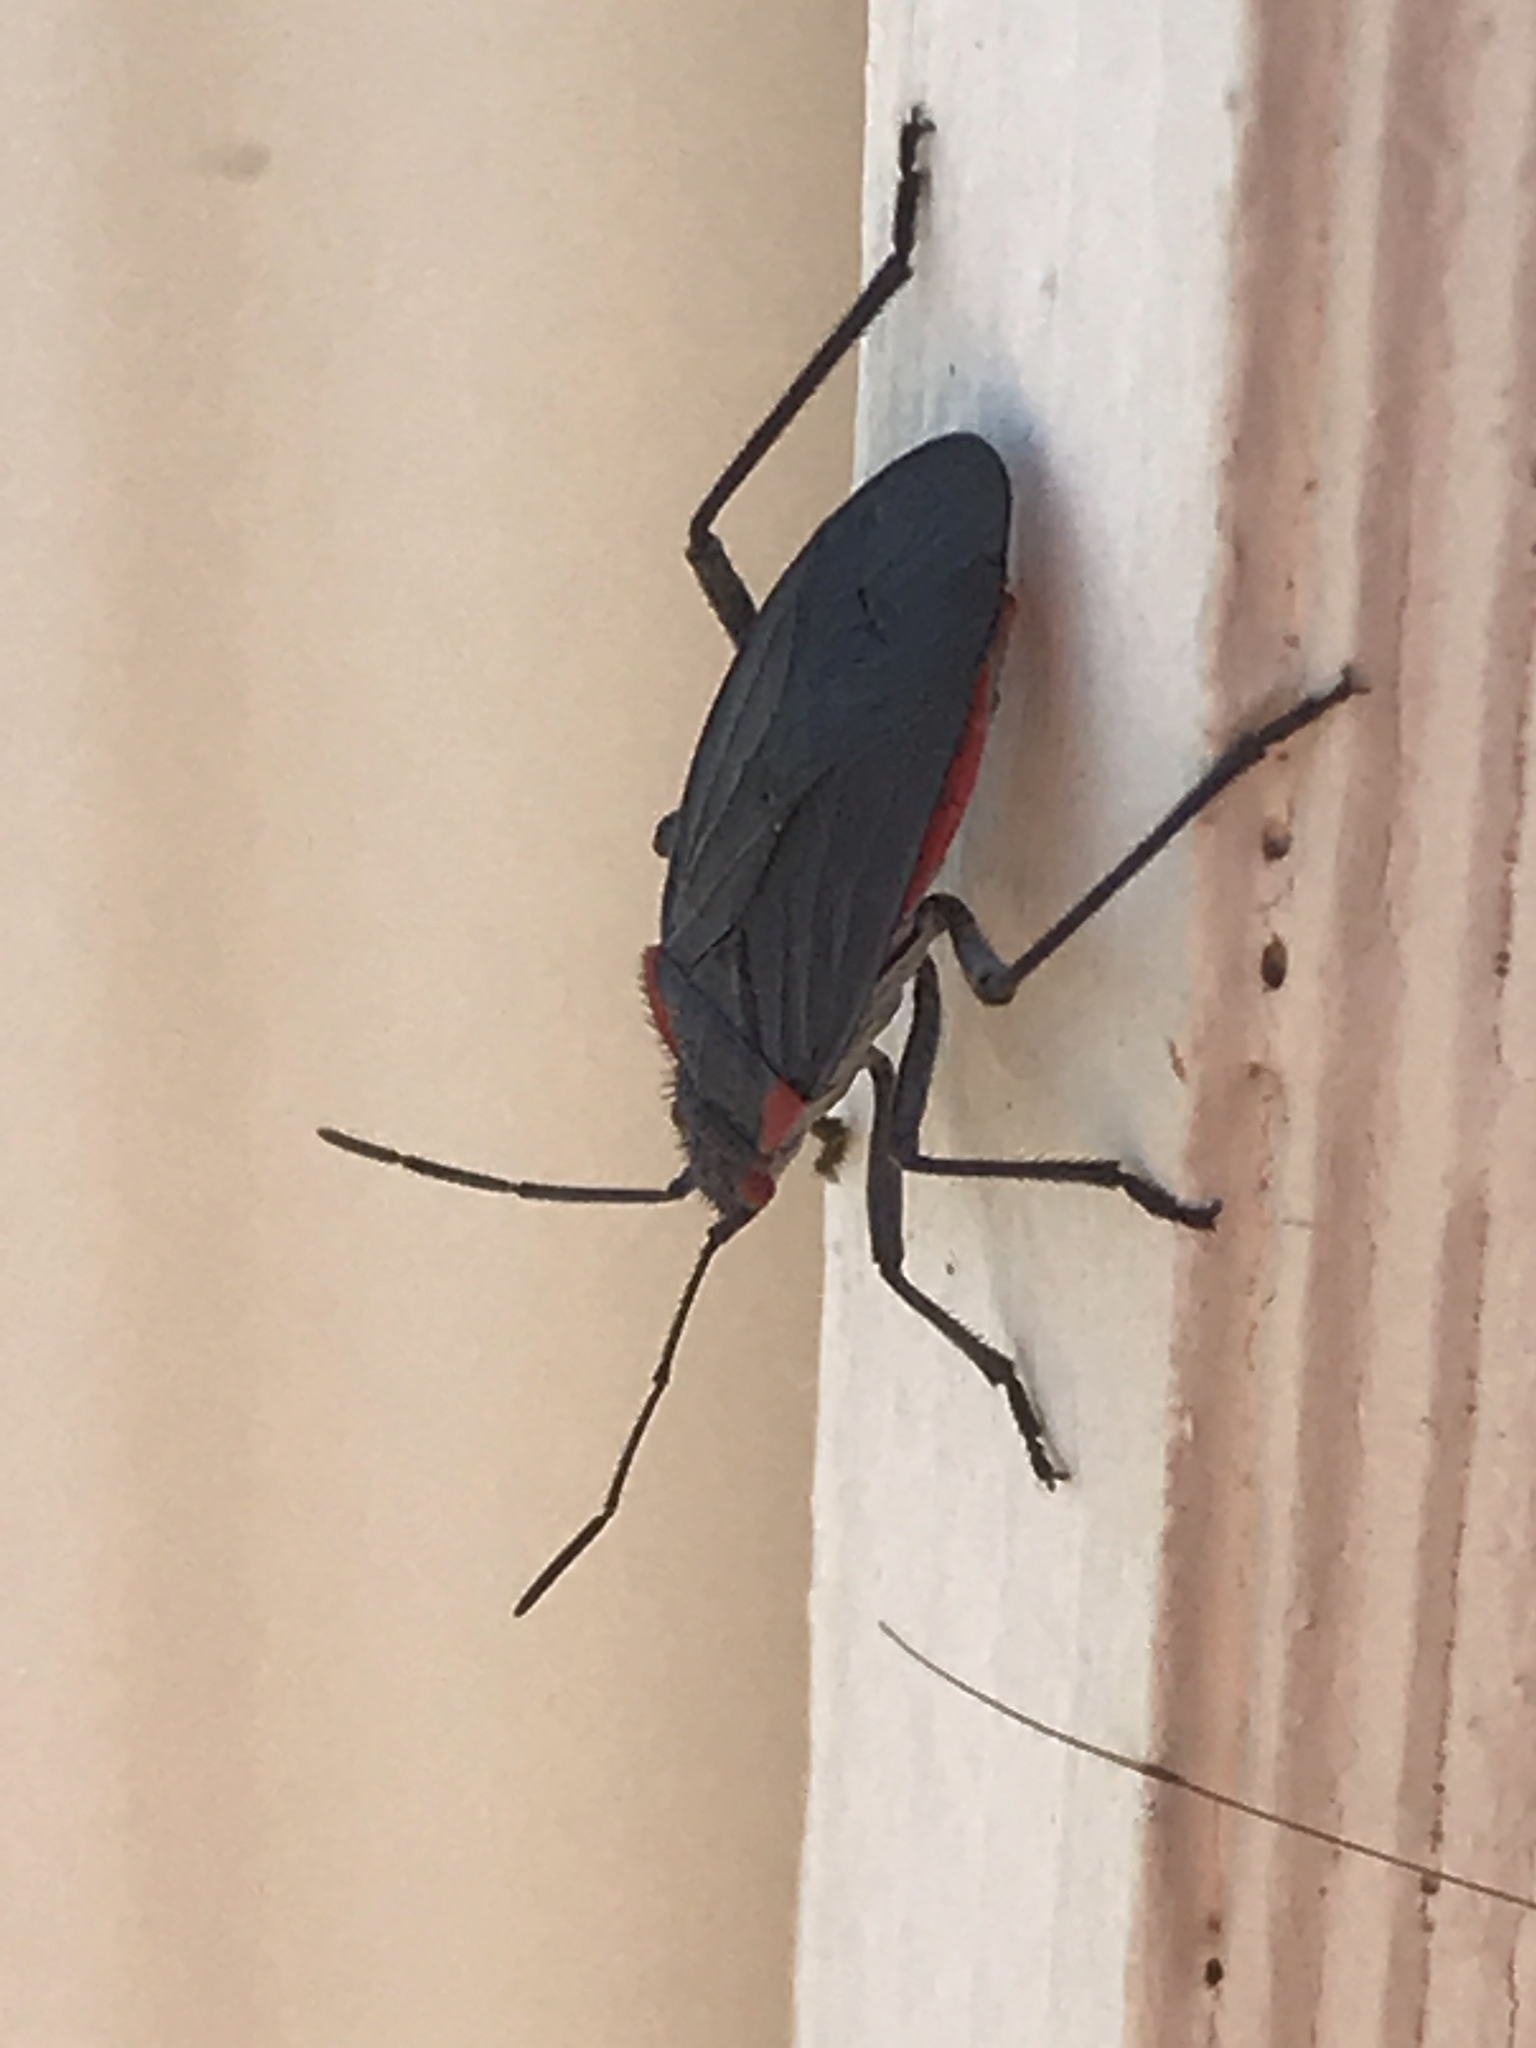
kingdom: Animalia
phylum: Arthropoda
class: Insecta
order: Hemiptera
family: Rhopalidae
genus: Jadera
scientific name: Jadera haematoloma
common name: Red-shouldered bug
